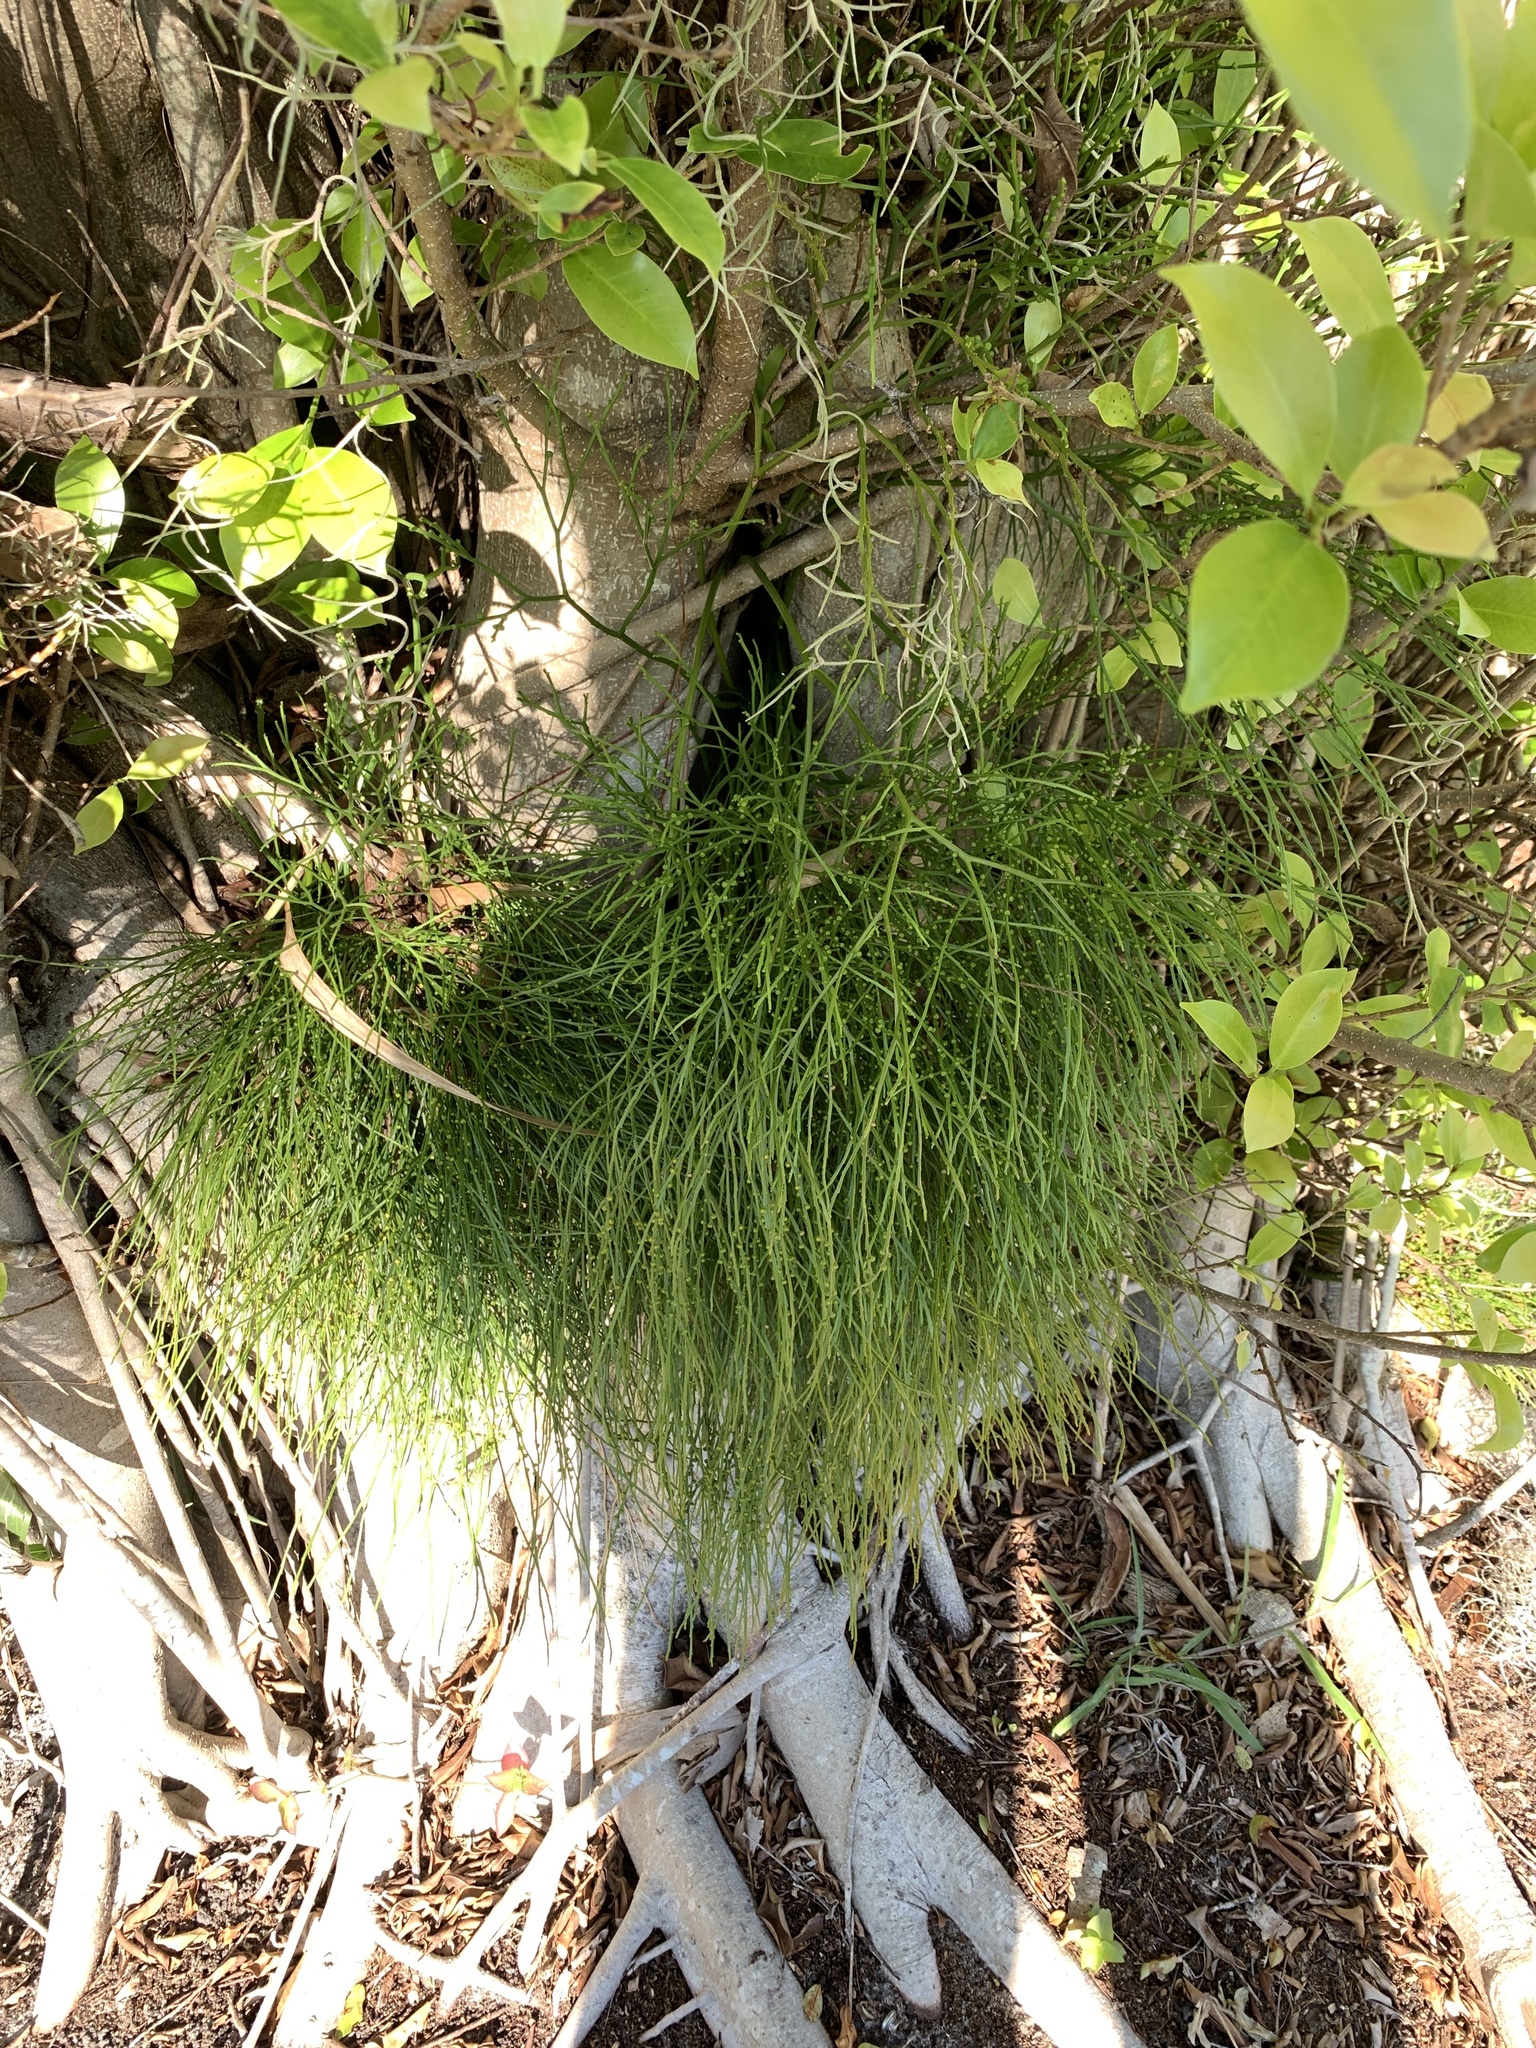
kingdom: Plantae
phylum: Tracheophyta
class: Polypodiopsida
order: Psilotales
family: Psilotaceae
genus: Psilotum
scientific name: Psilotum nudum
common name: Skeleton fork fern
